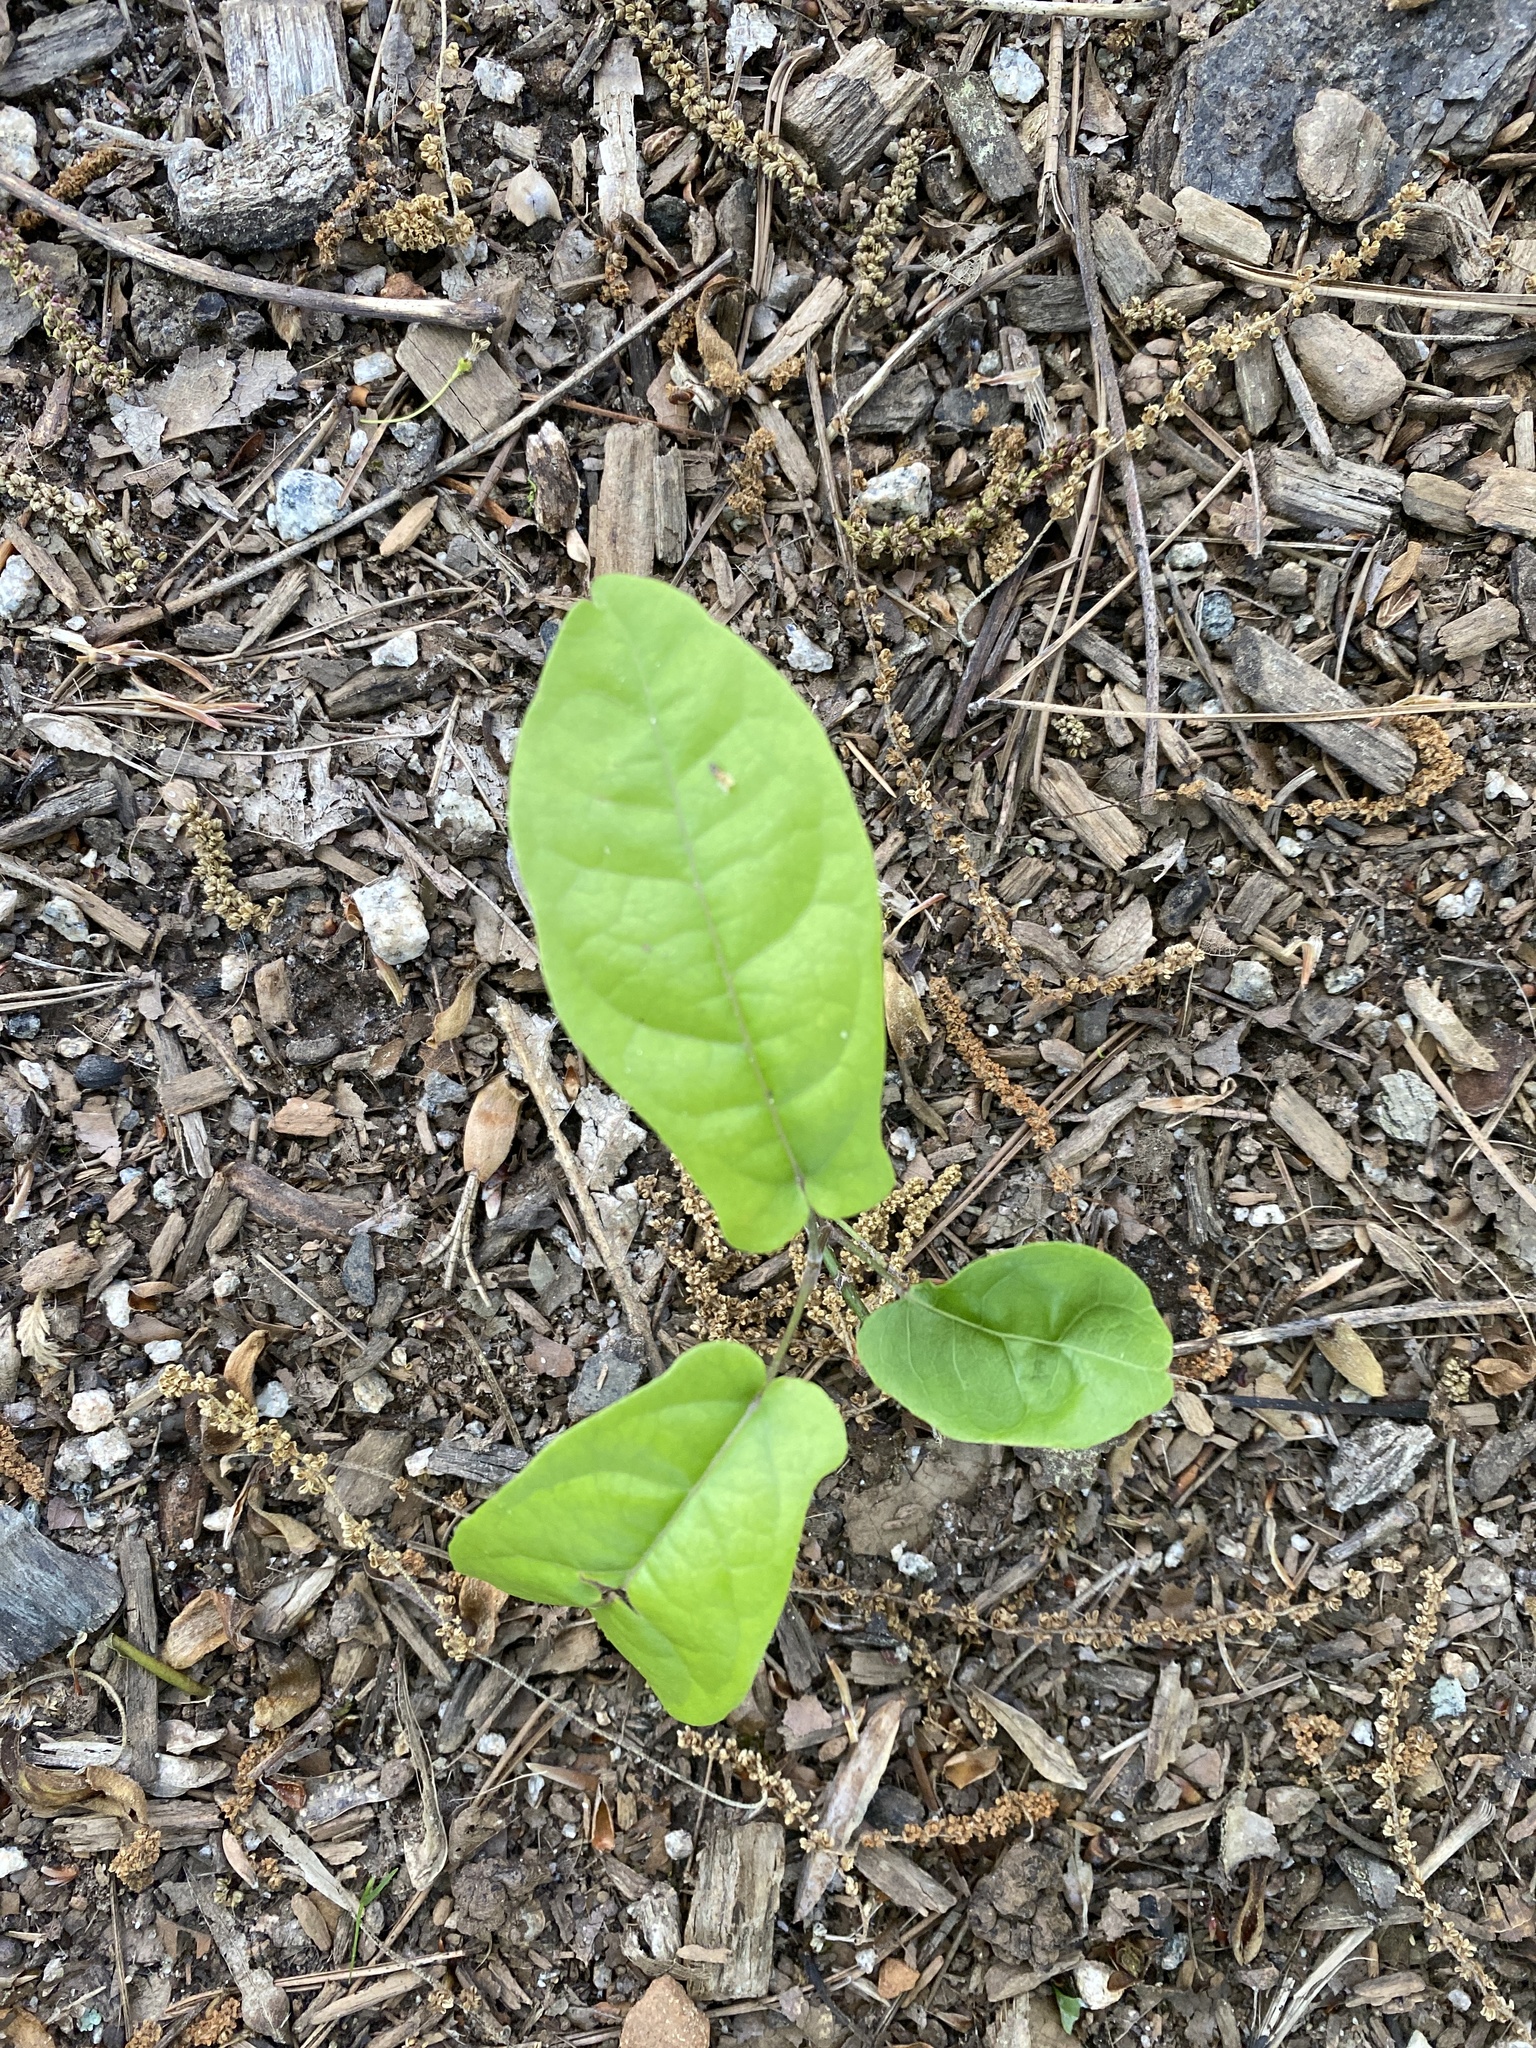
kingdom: Plantae
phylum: Tracheophyta
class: Magnoliopsida
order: Lamiales
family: Bignoniaceae
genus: Bignonia
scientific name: Bignonia capreolata
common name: Crossvine
